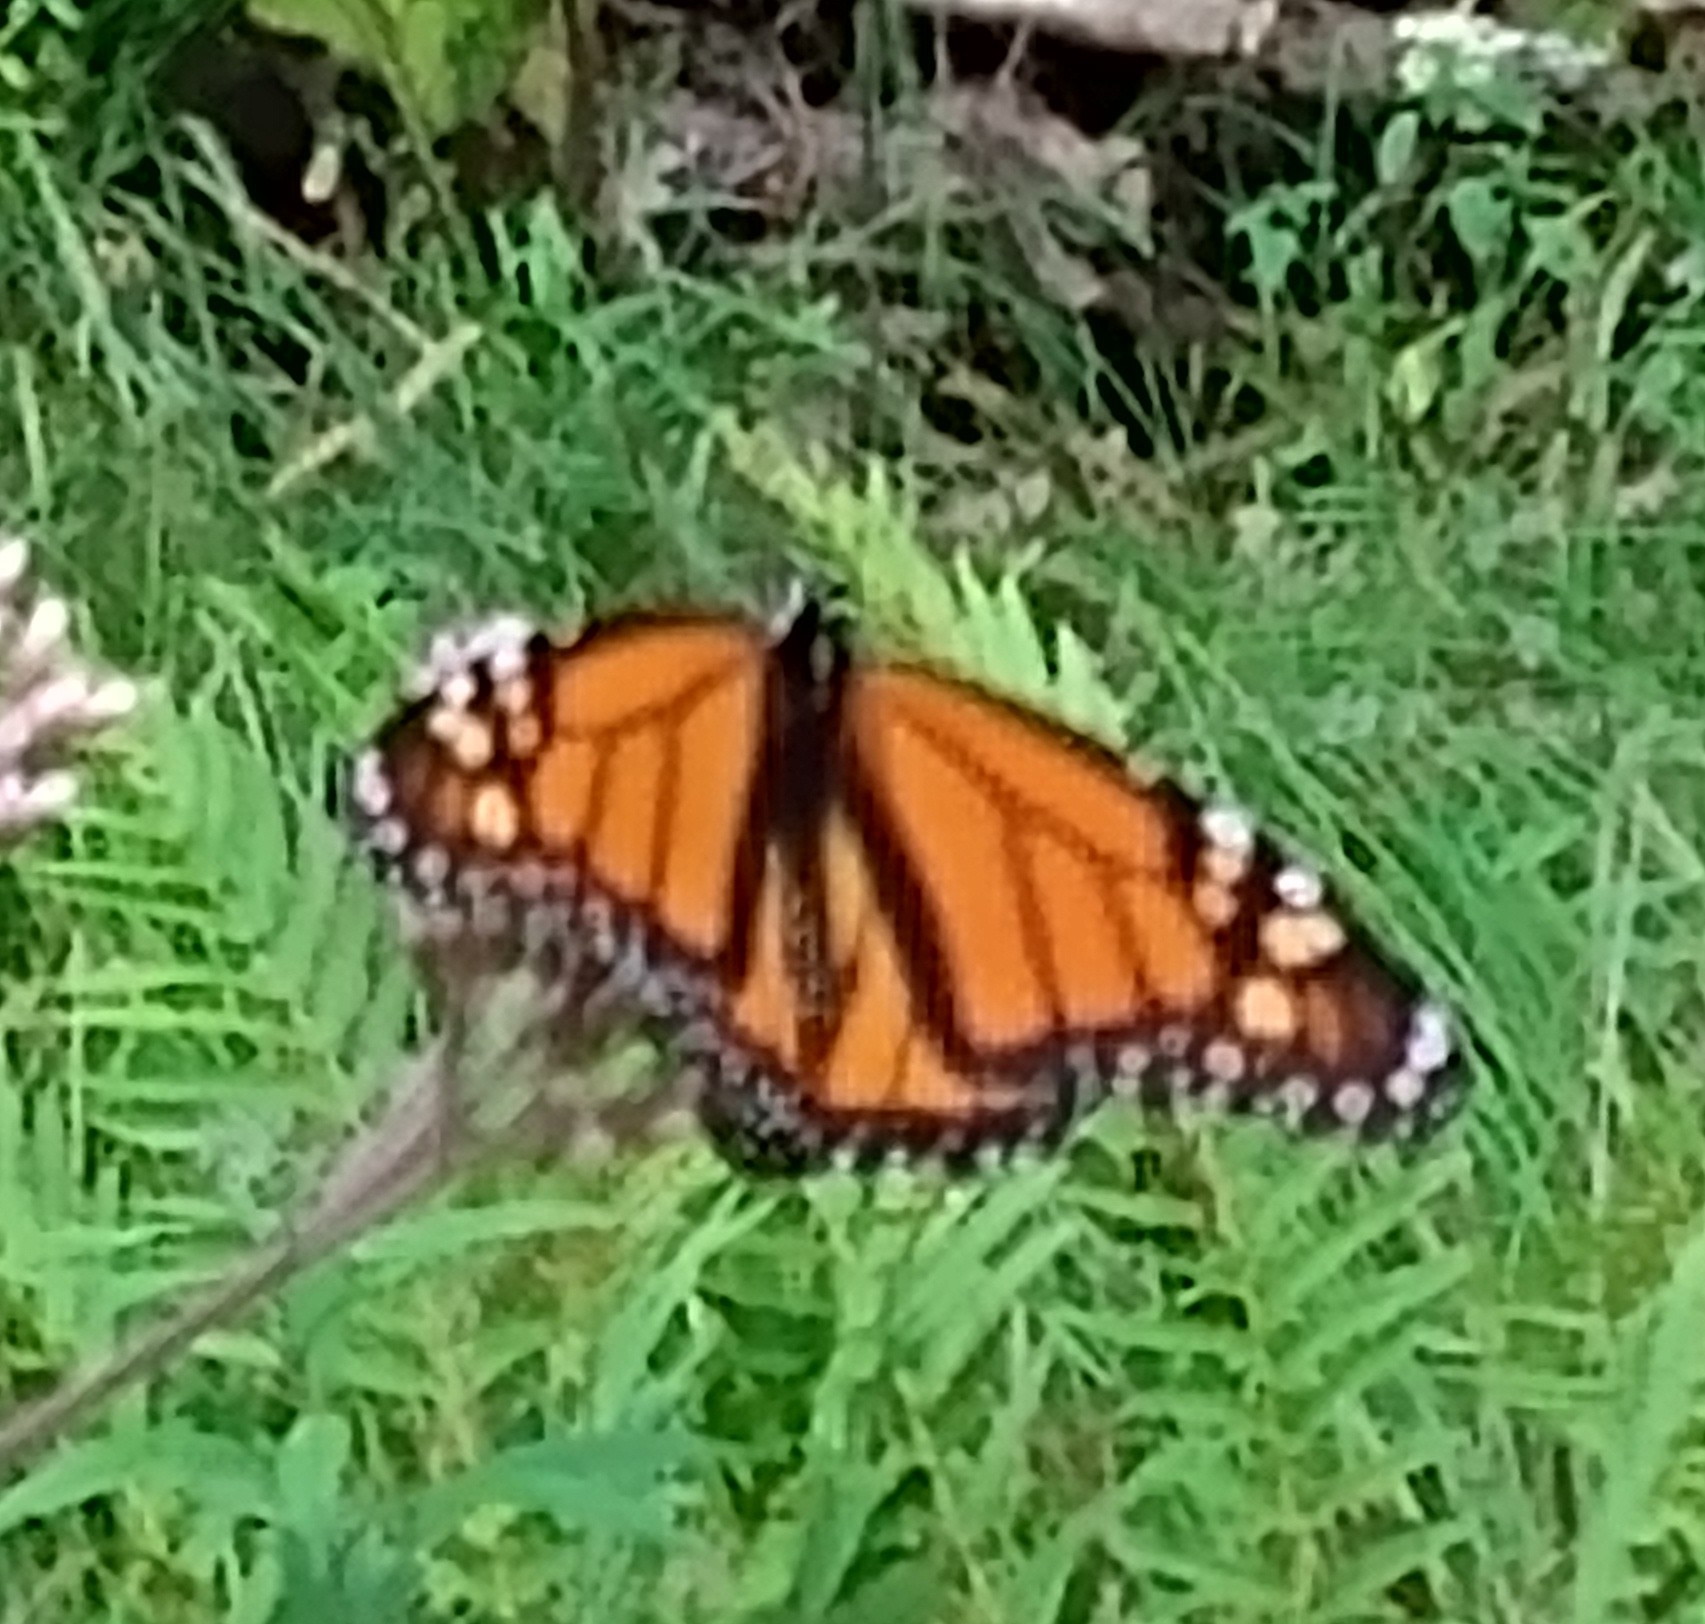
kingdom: Animalia
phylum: Arthropoda
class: Insecta
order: Lepidoptera
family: Nymphalidae
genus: Danaus
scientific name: Danaus plexippus
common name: Monarch
